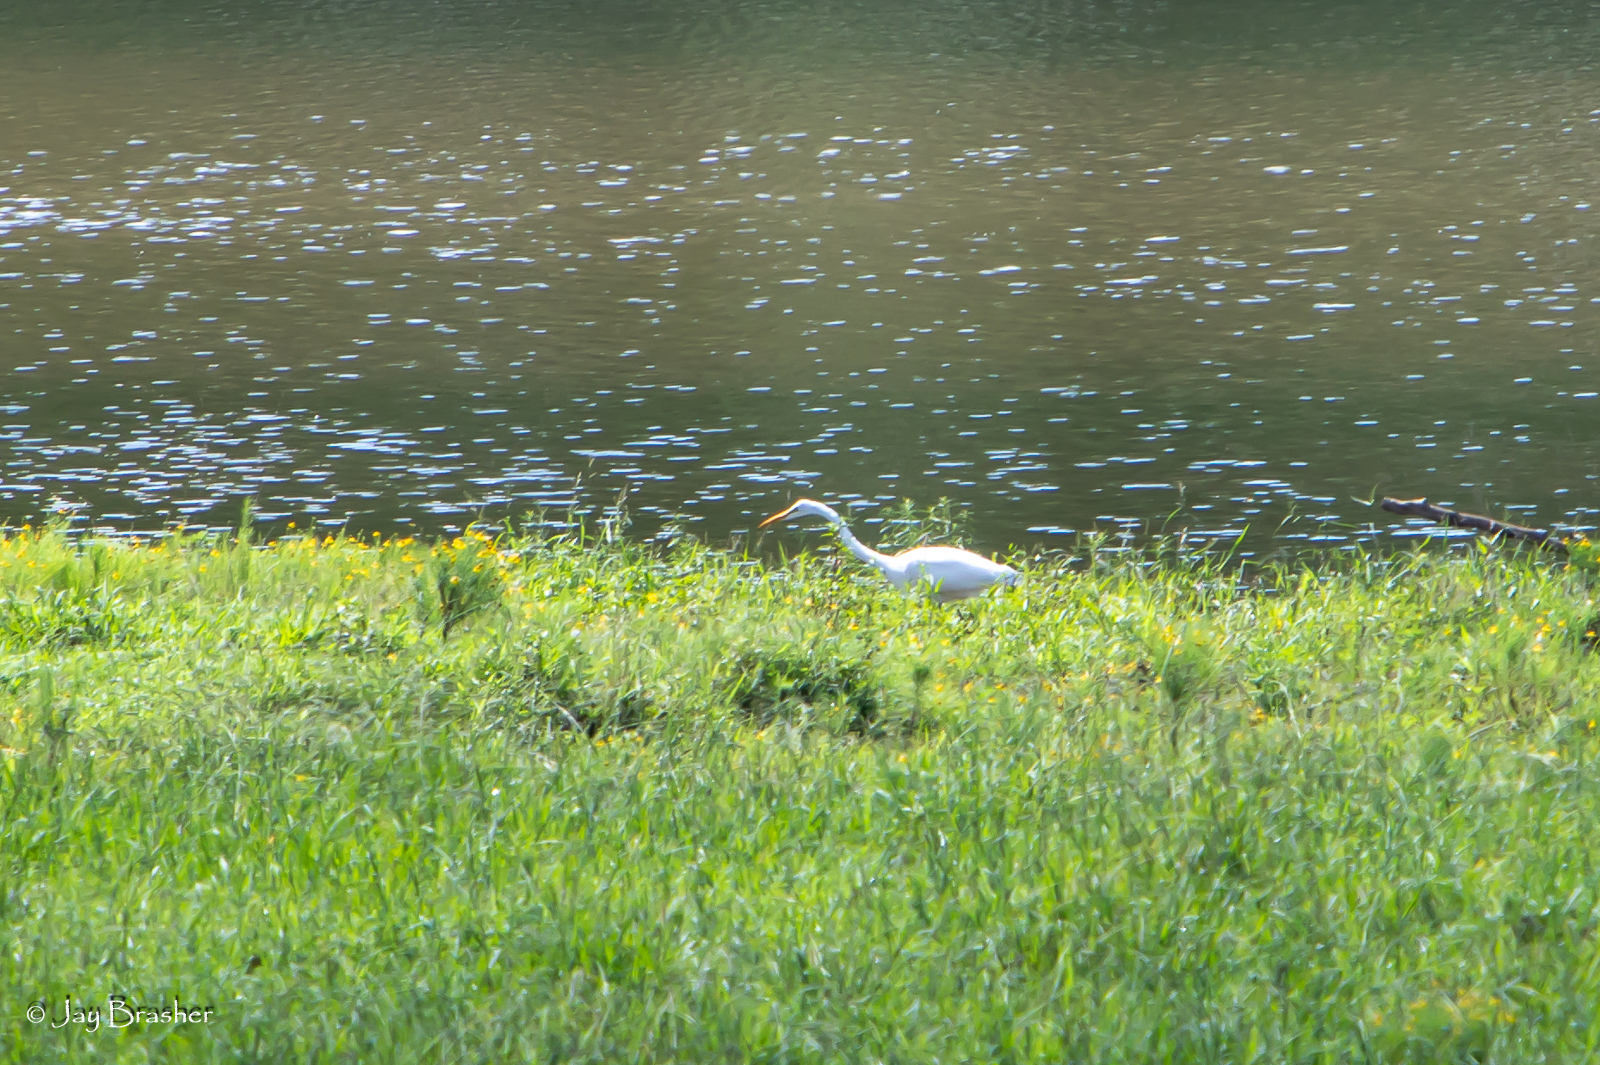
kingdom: Animalia
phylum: Chordata
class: Aves
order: Pelecaniformes
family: Ardeidae
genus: Ardea
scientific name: Ardea alba
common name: Great egret
